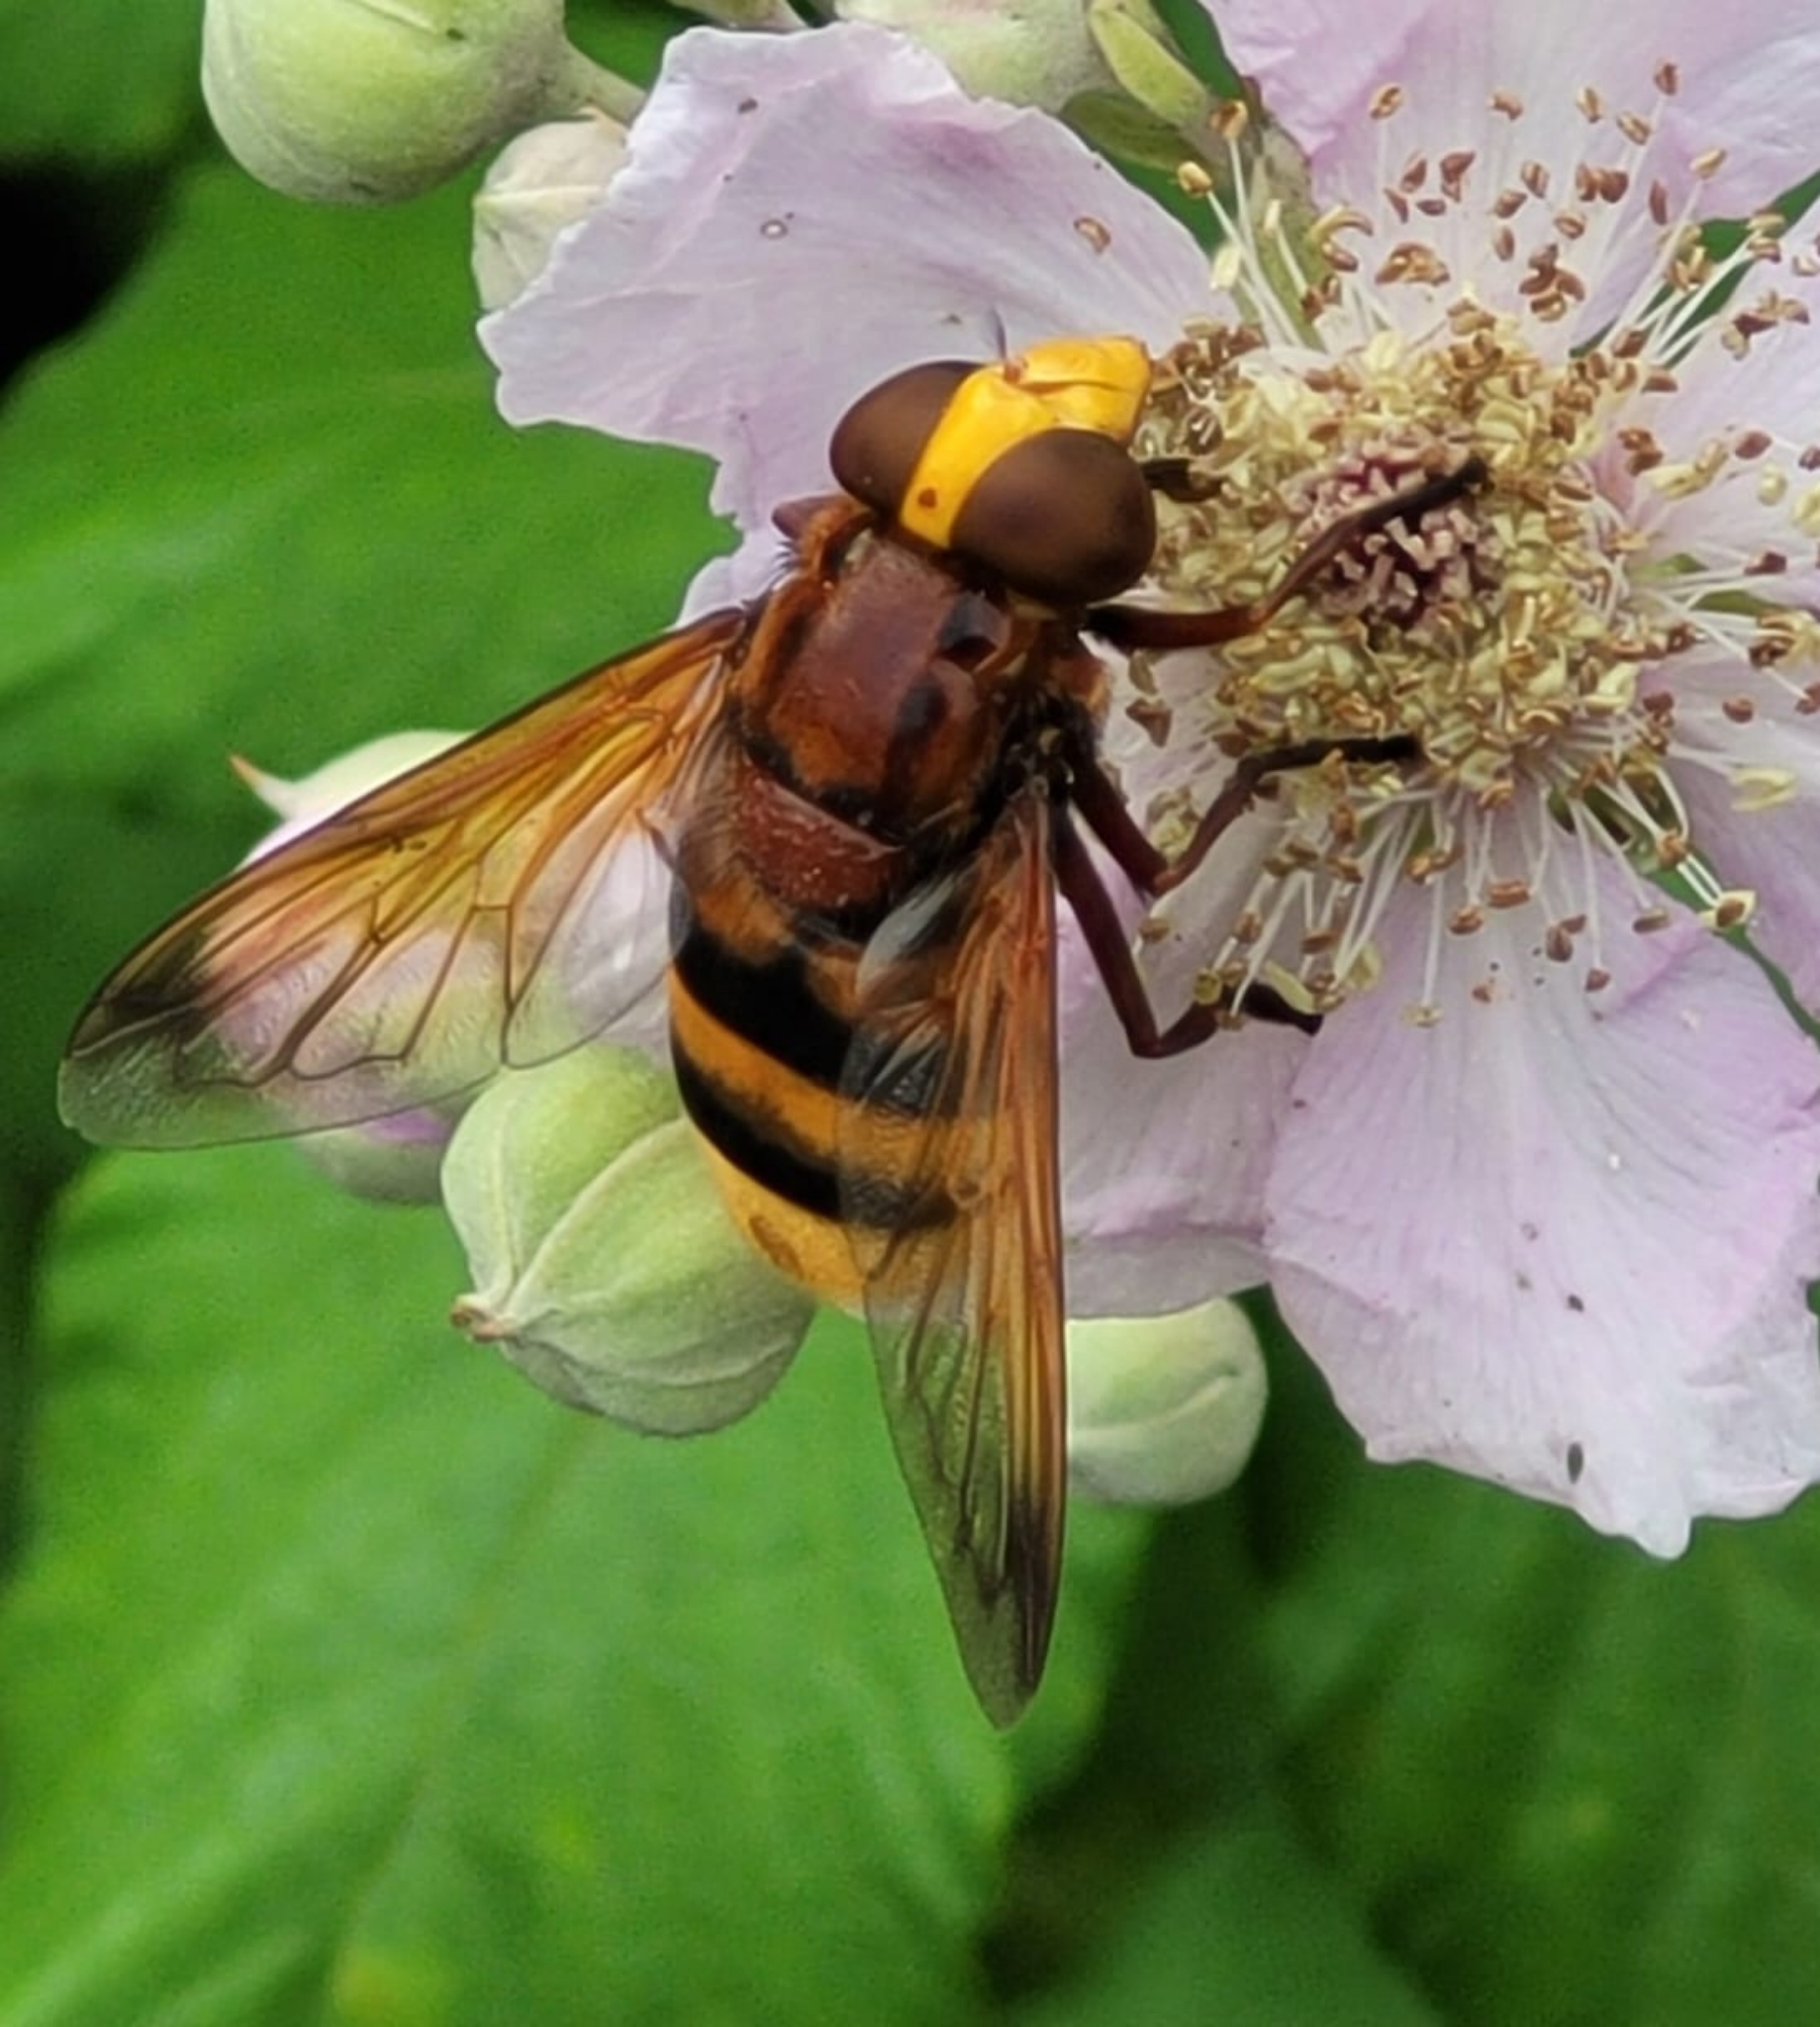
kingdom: Animalia
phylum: Arthropoda
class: Insecta
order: Diptera
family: Syrphidae
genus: Volucella
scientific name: Volucella zonaria
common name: Hornet hoverfly
